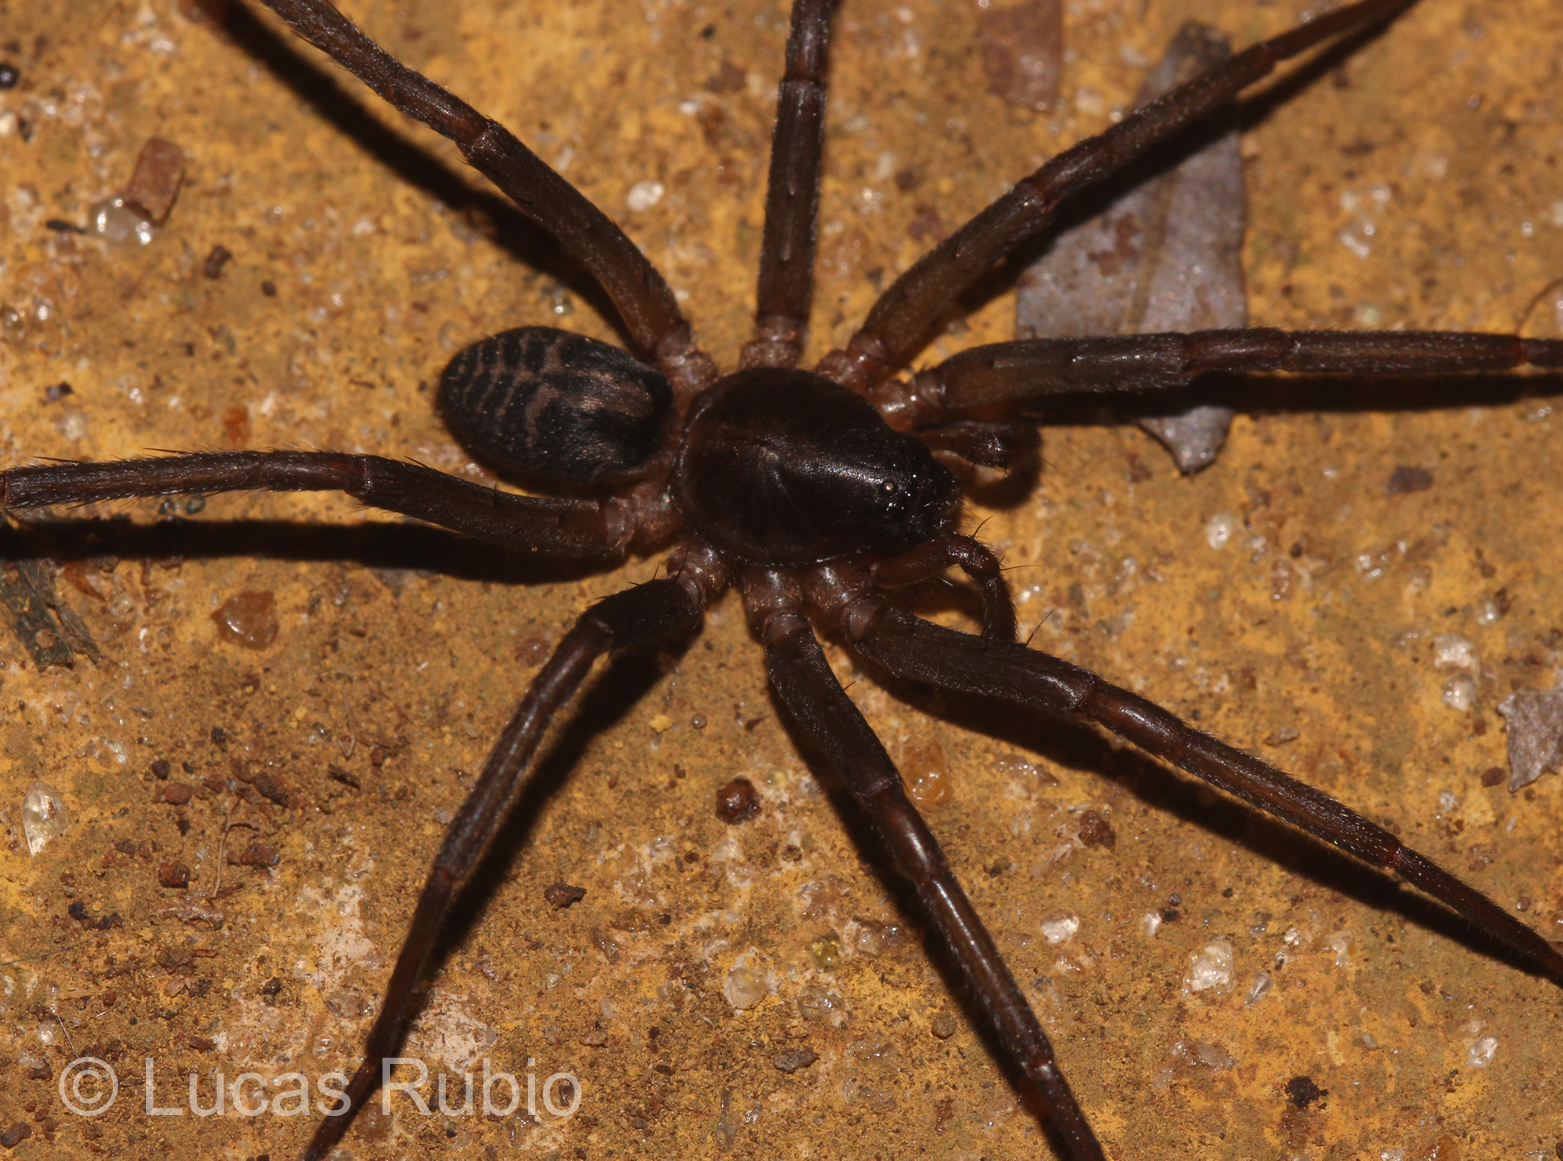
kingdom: Animalia
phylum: Arthropoda
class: Arachnida
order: Araneae
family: Corinnidae
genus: Creugas
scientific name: Creugas lisei
